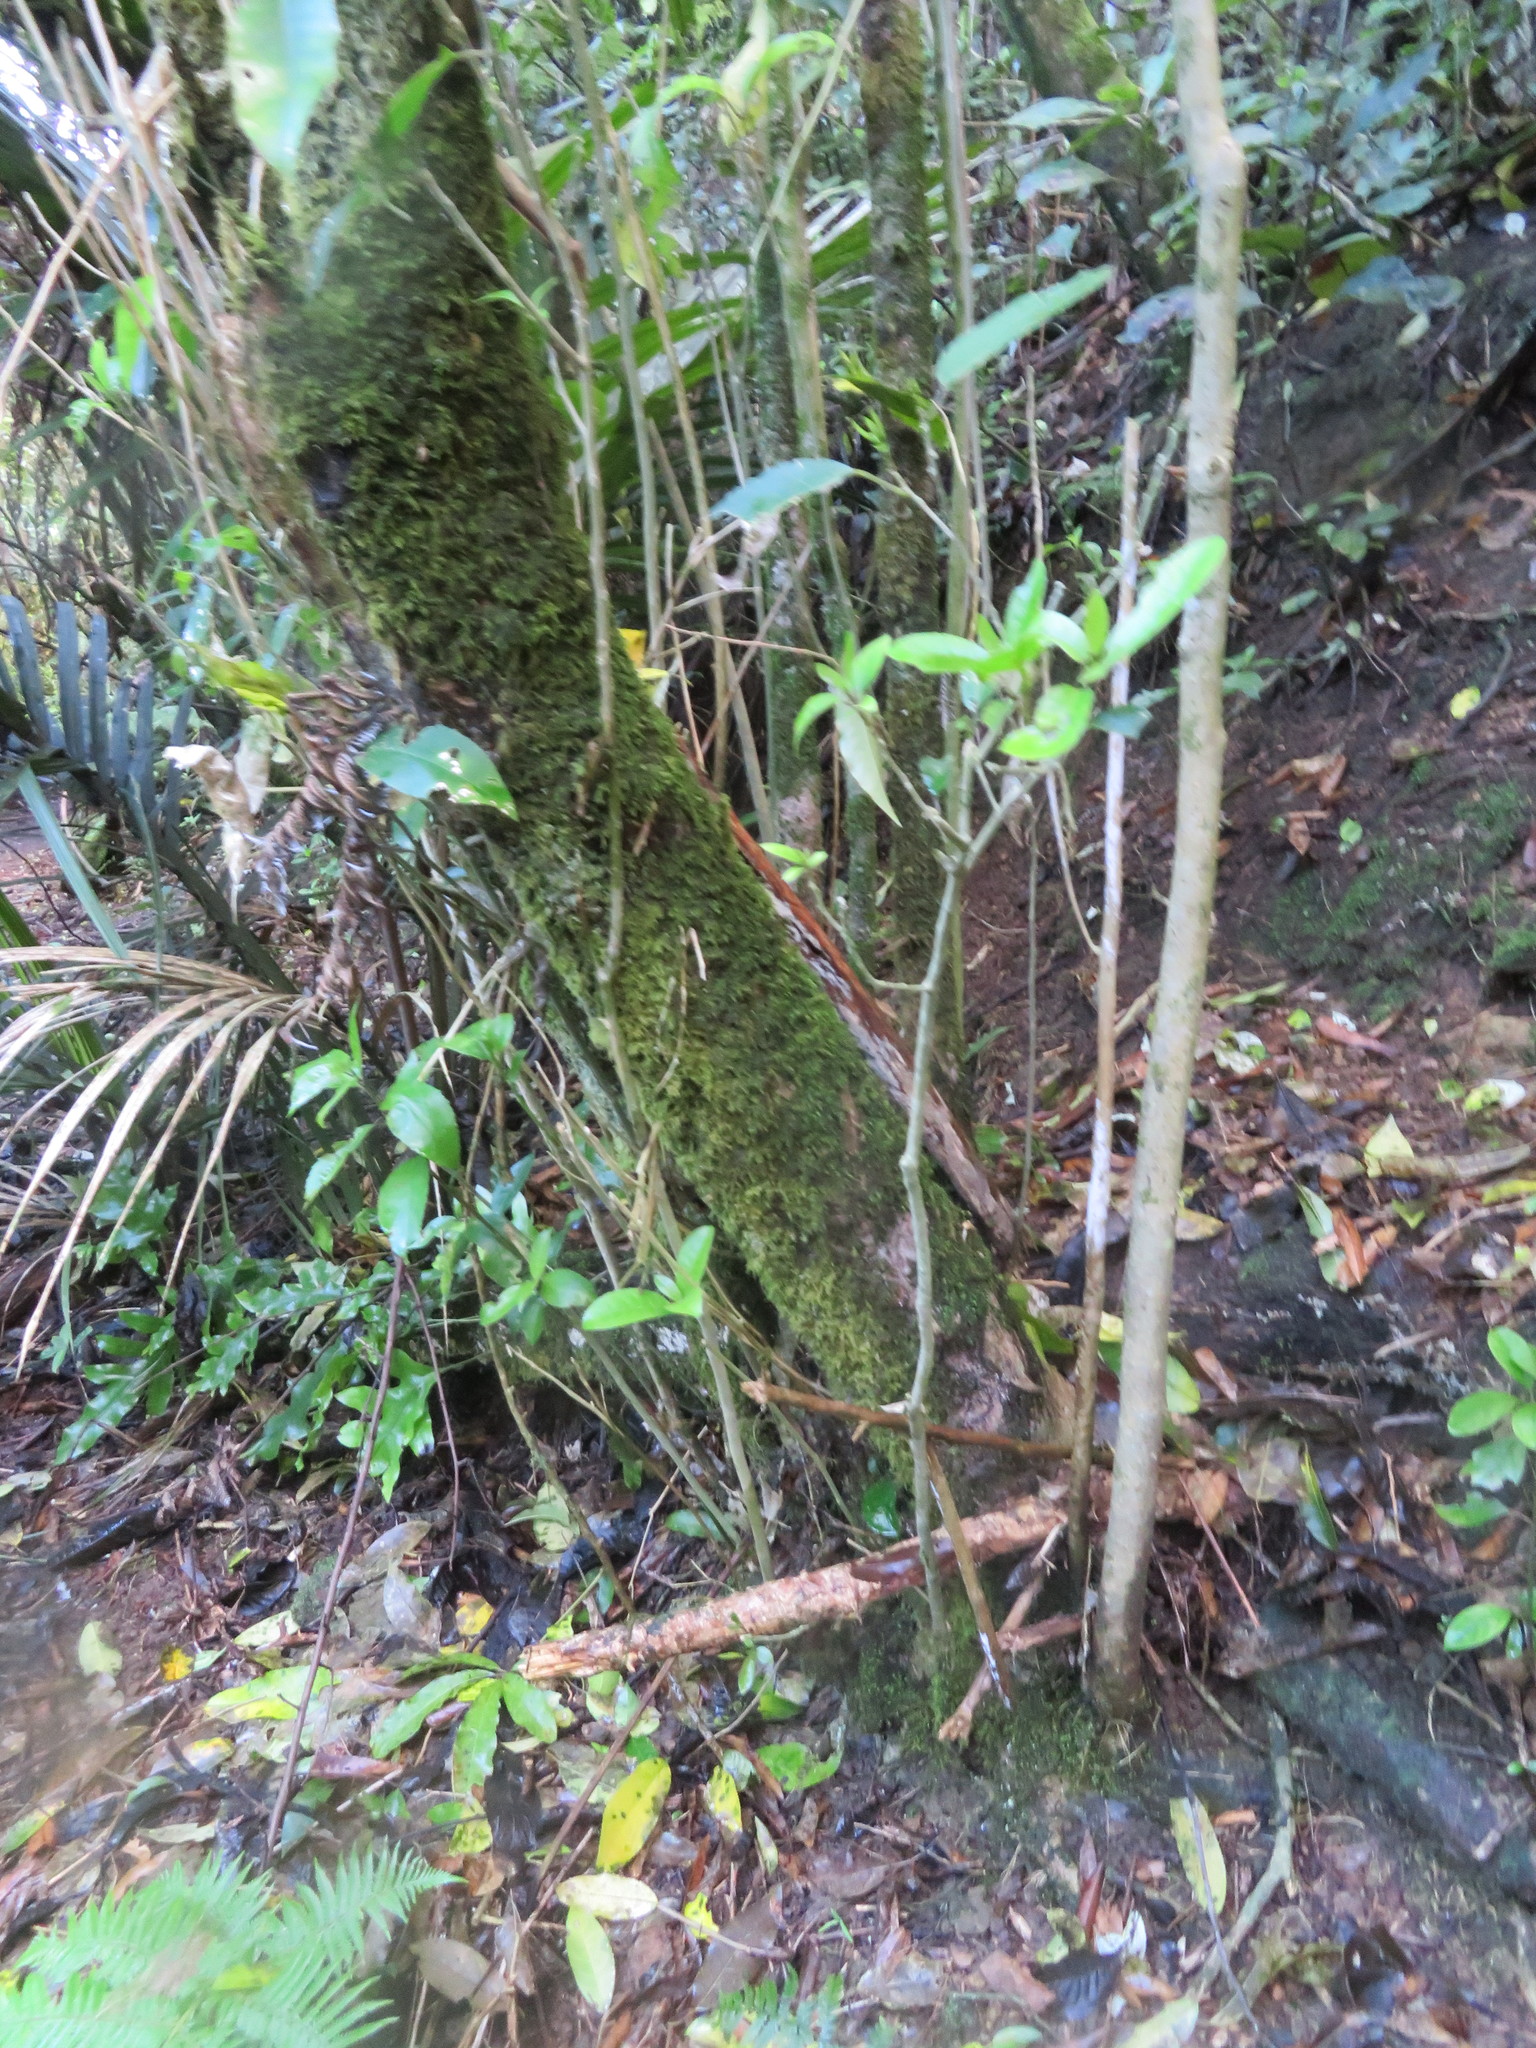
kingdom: Plantae
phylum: Tracheophyta
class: Polypodiopsida
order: Polypodiales
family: Polypodiaceae
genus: Lecanopteris
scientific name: Lecanopteris pustulata
